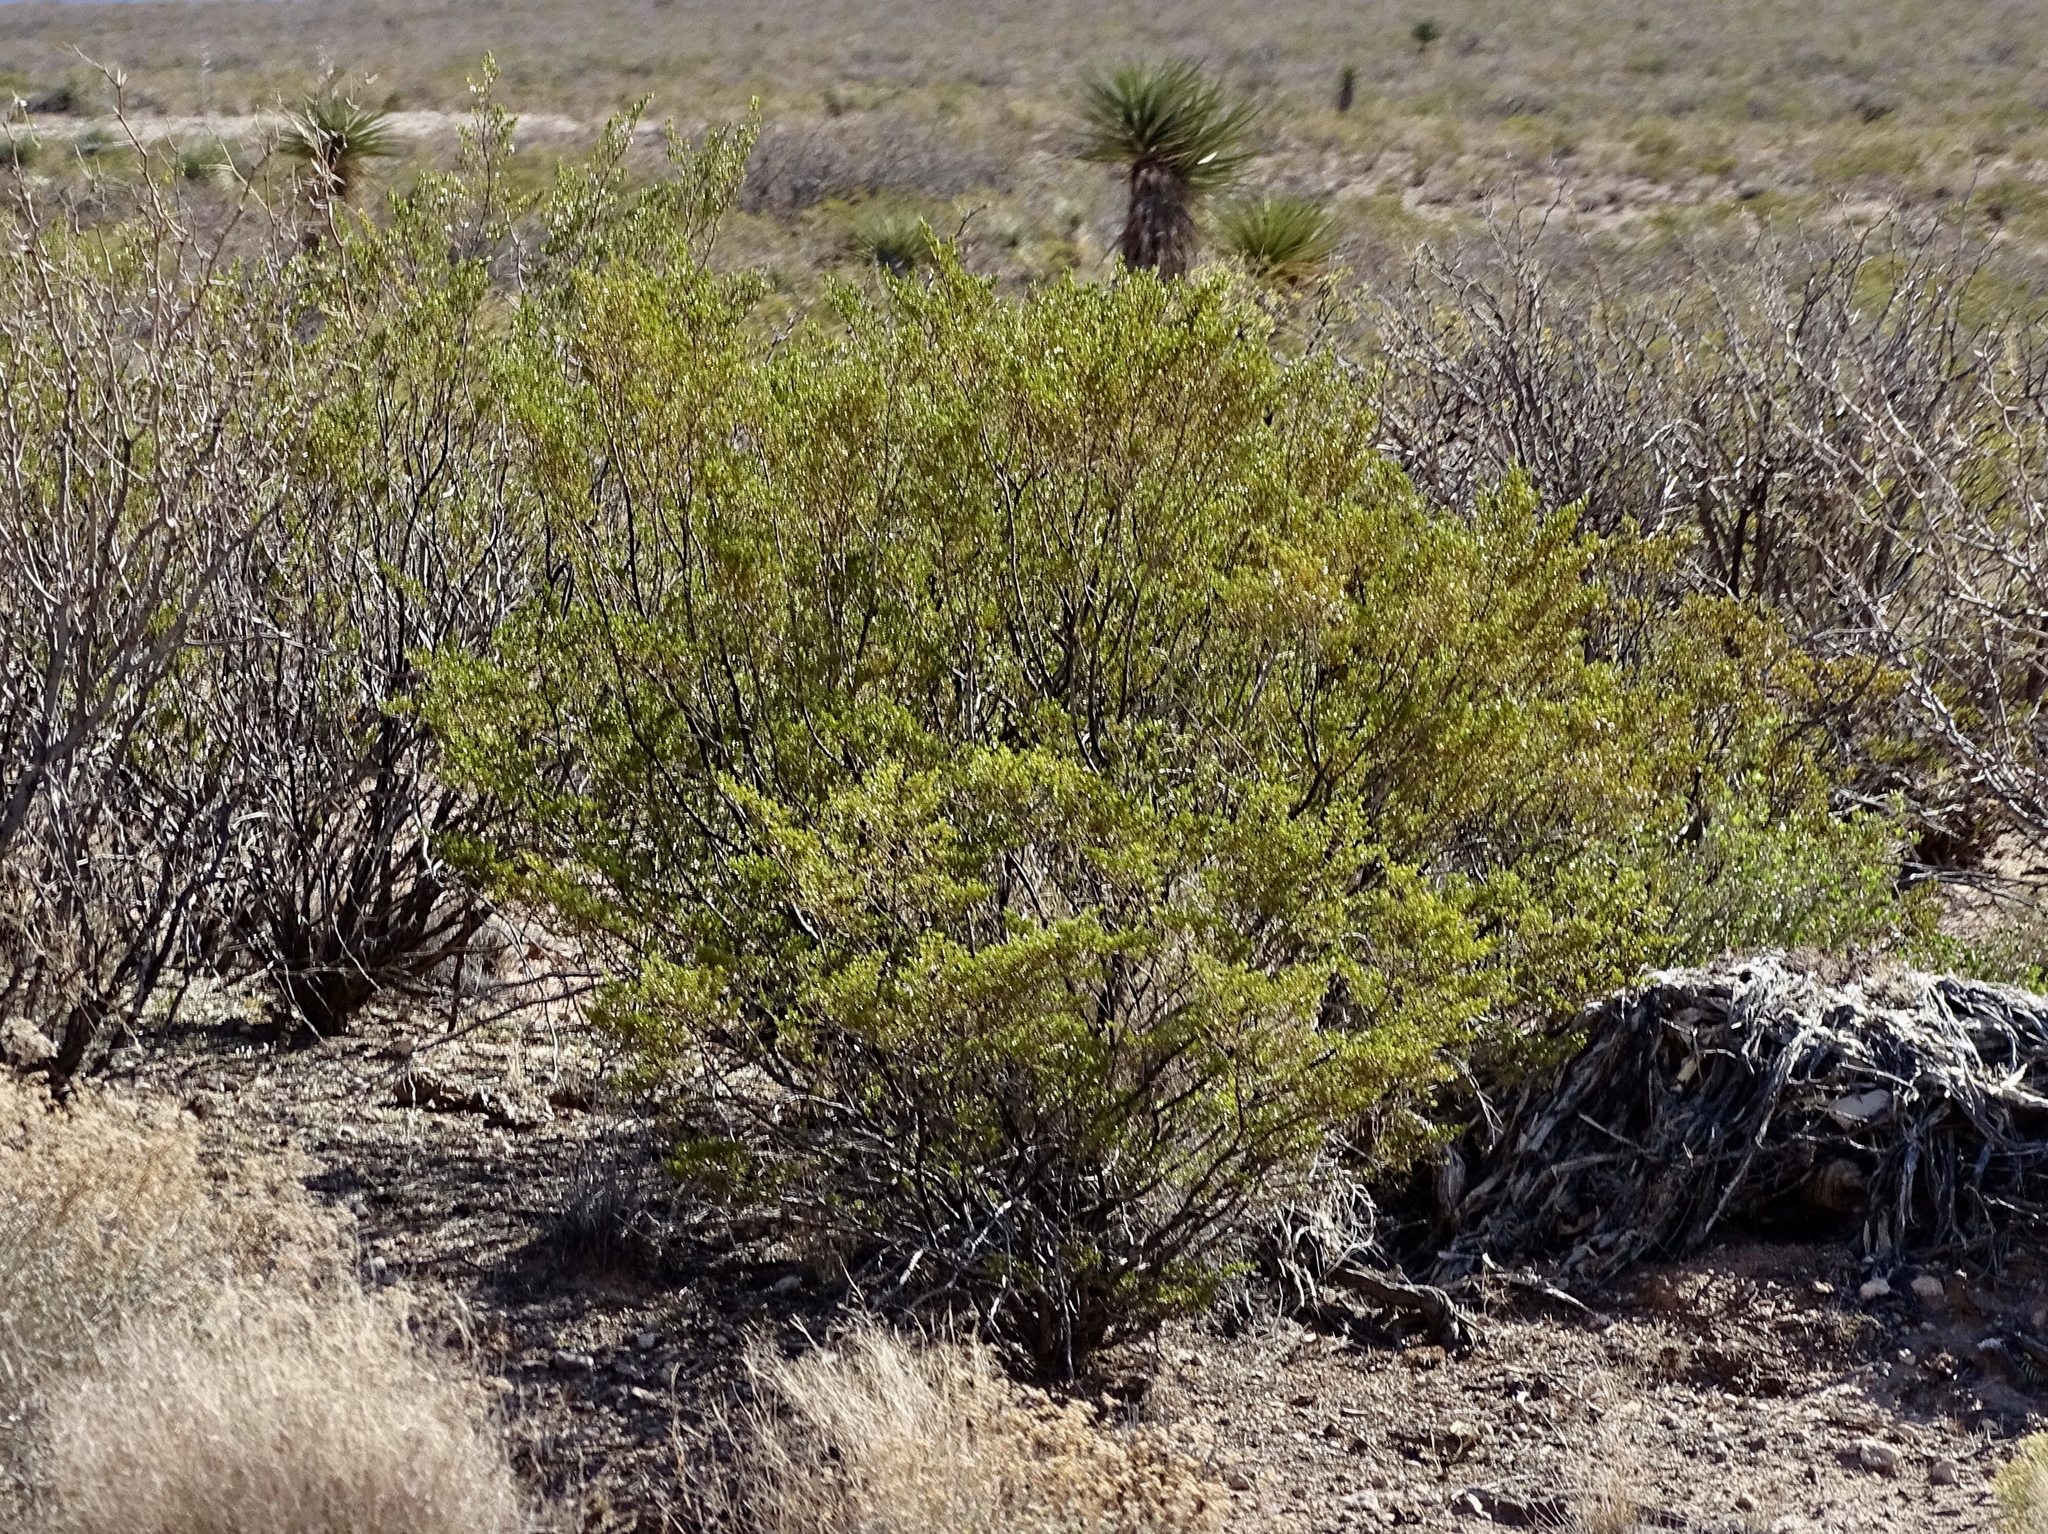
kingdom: Plantae
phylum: Tracheophyta
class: Magnoliopsida
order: Zygophyllales
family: Zygophyllaceae
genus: Larrea
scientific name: Larrea tridentata
